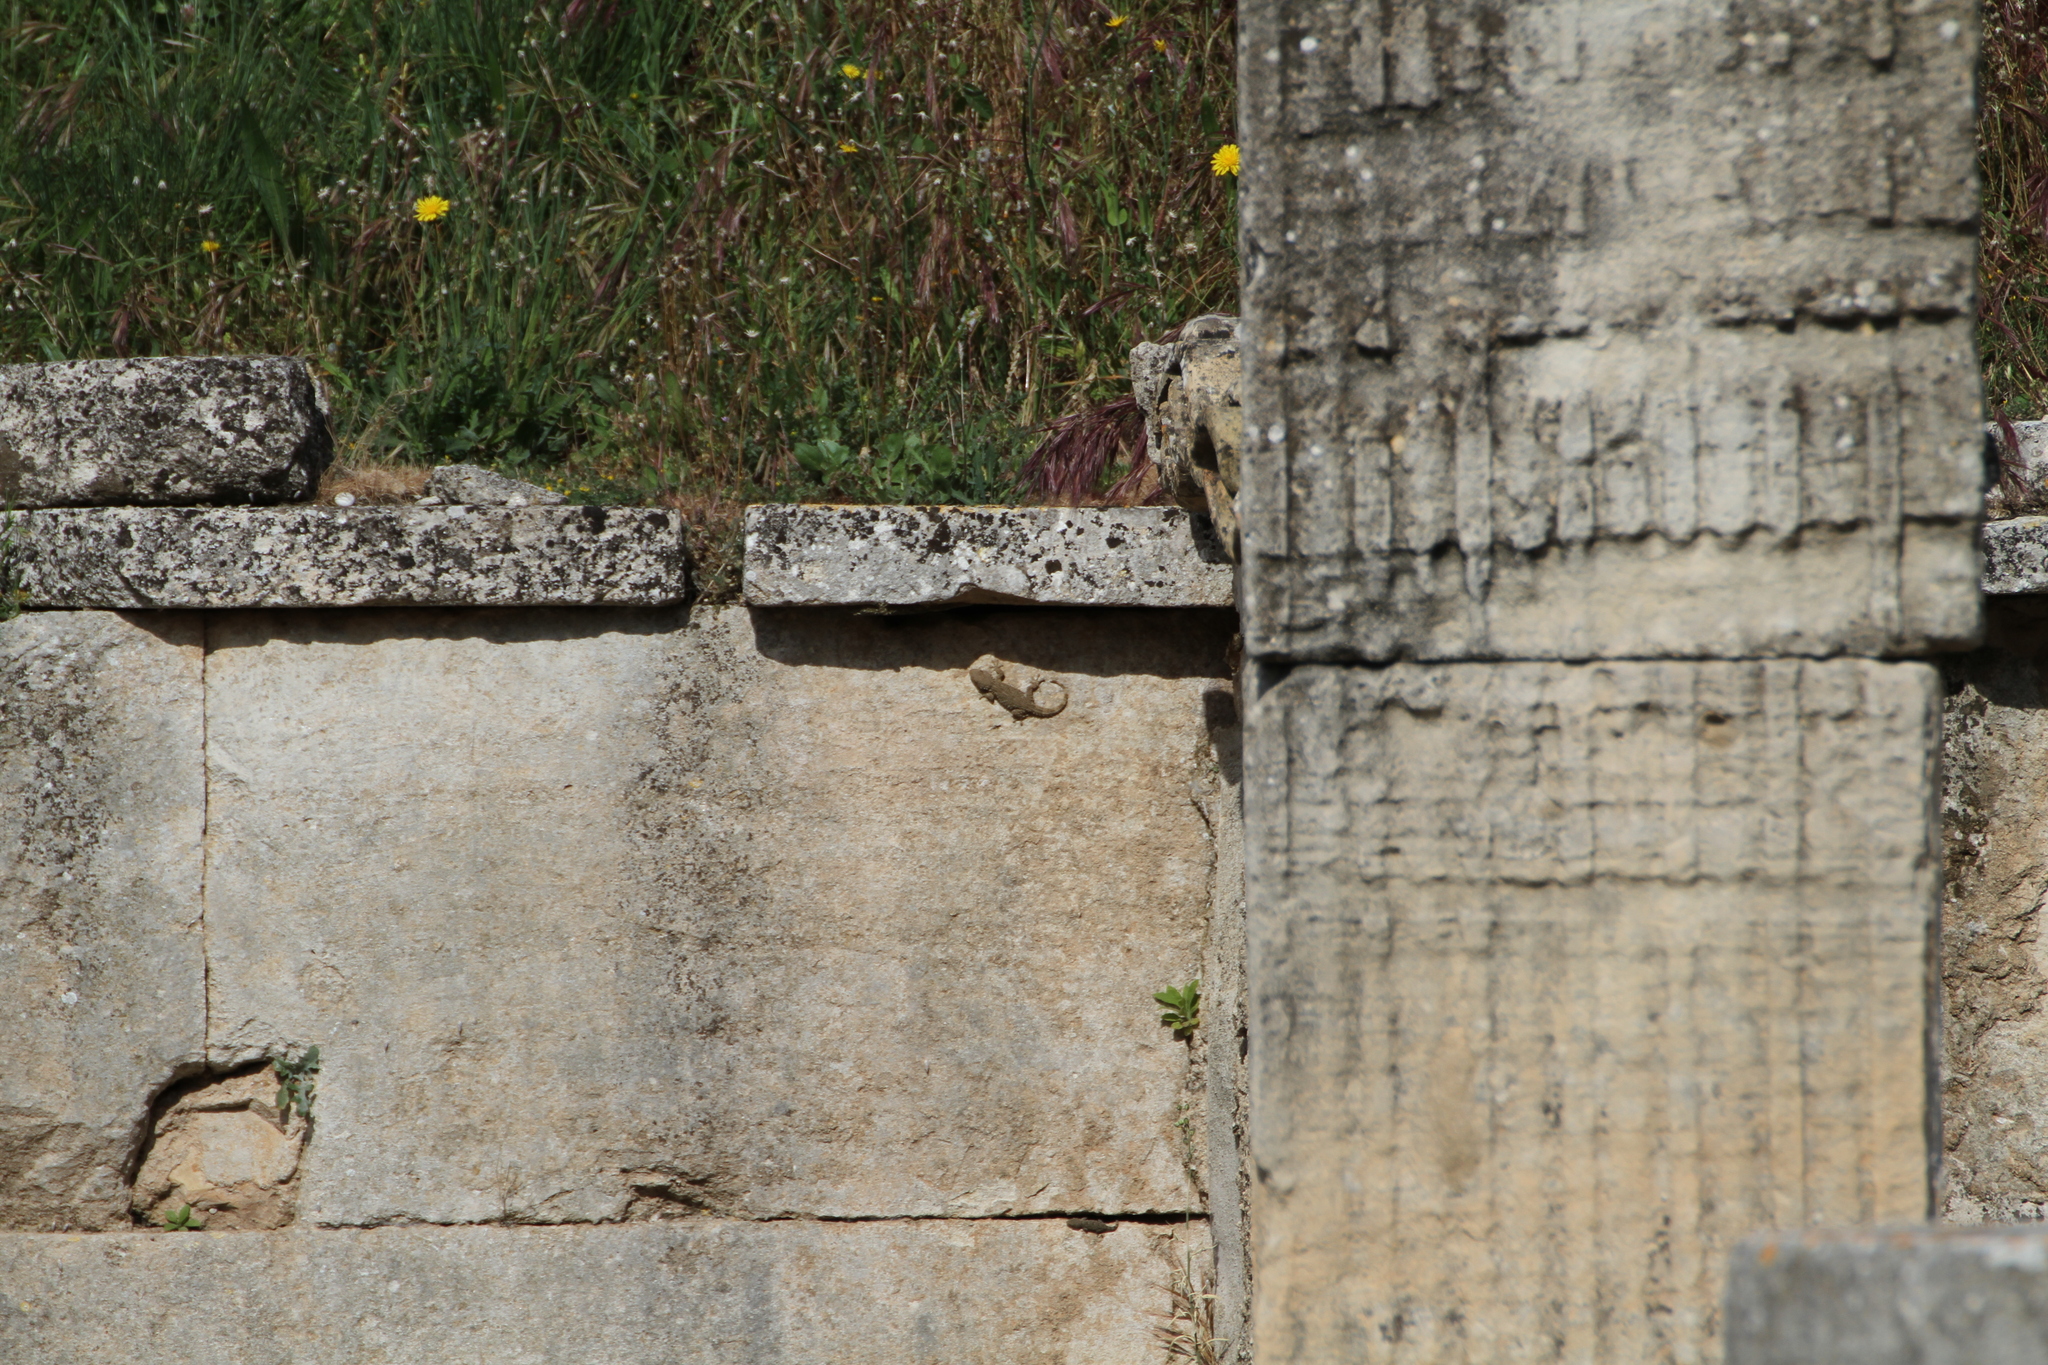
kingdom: Animalia
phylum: Chordata
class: Squamata
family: Phyllodactylidae
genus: Tarentola
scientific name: Tarentola mauritanica
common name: Moorish gecko
